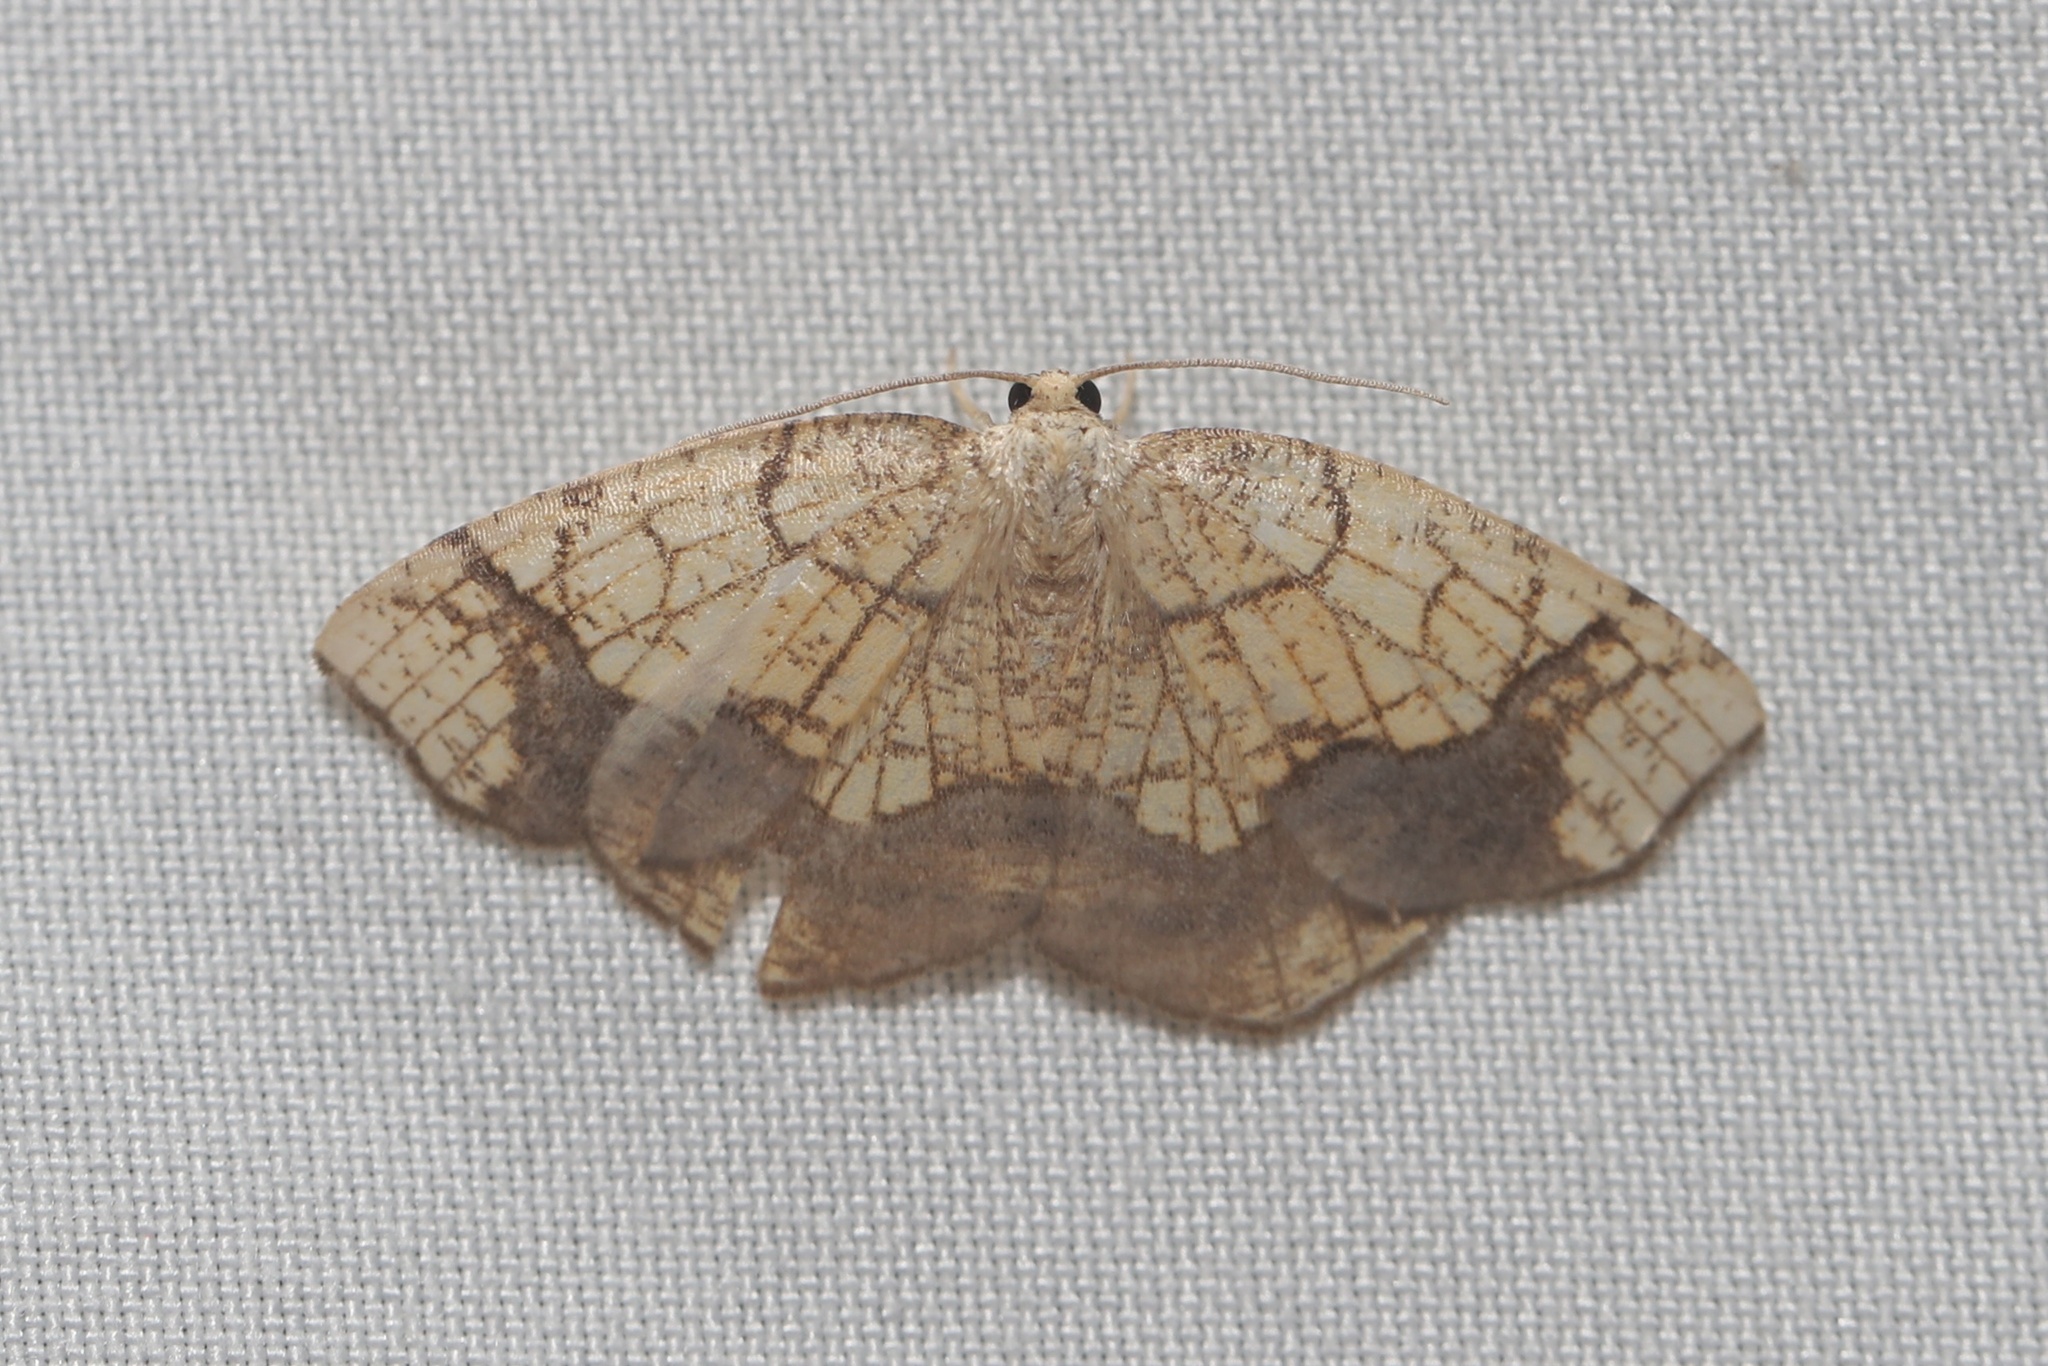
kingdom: Animalia
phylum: Arthropoda
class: Insecta
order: Lepidoptera
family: Geometridae
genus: Nematocampa
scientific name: Nematocampa resistaria
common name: Horned spanworm moth
